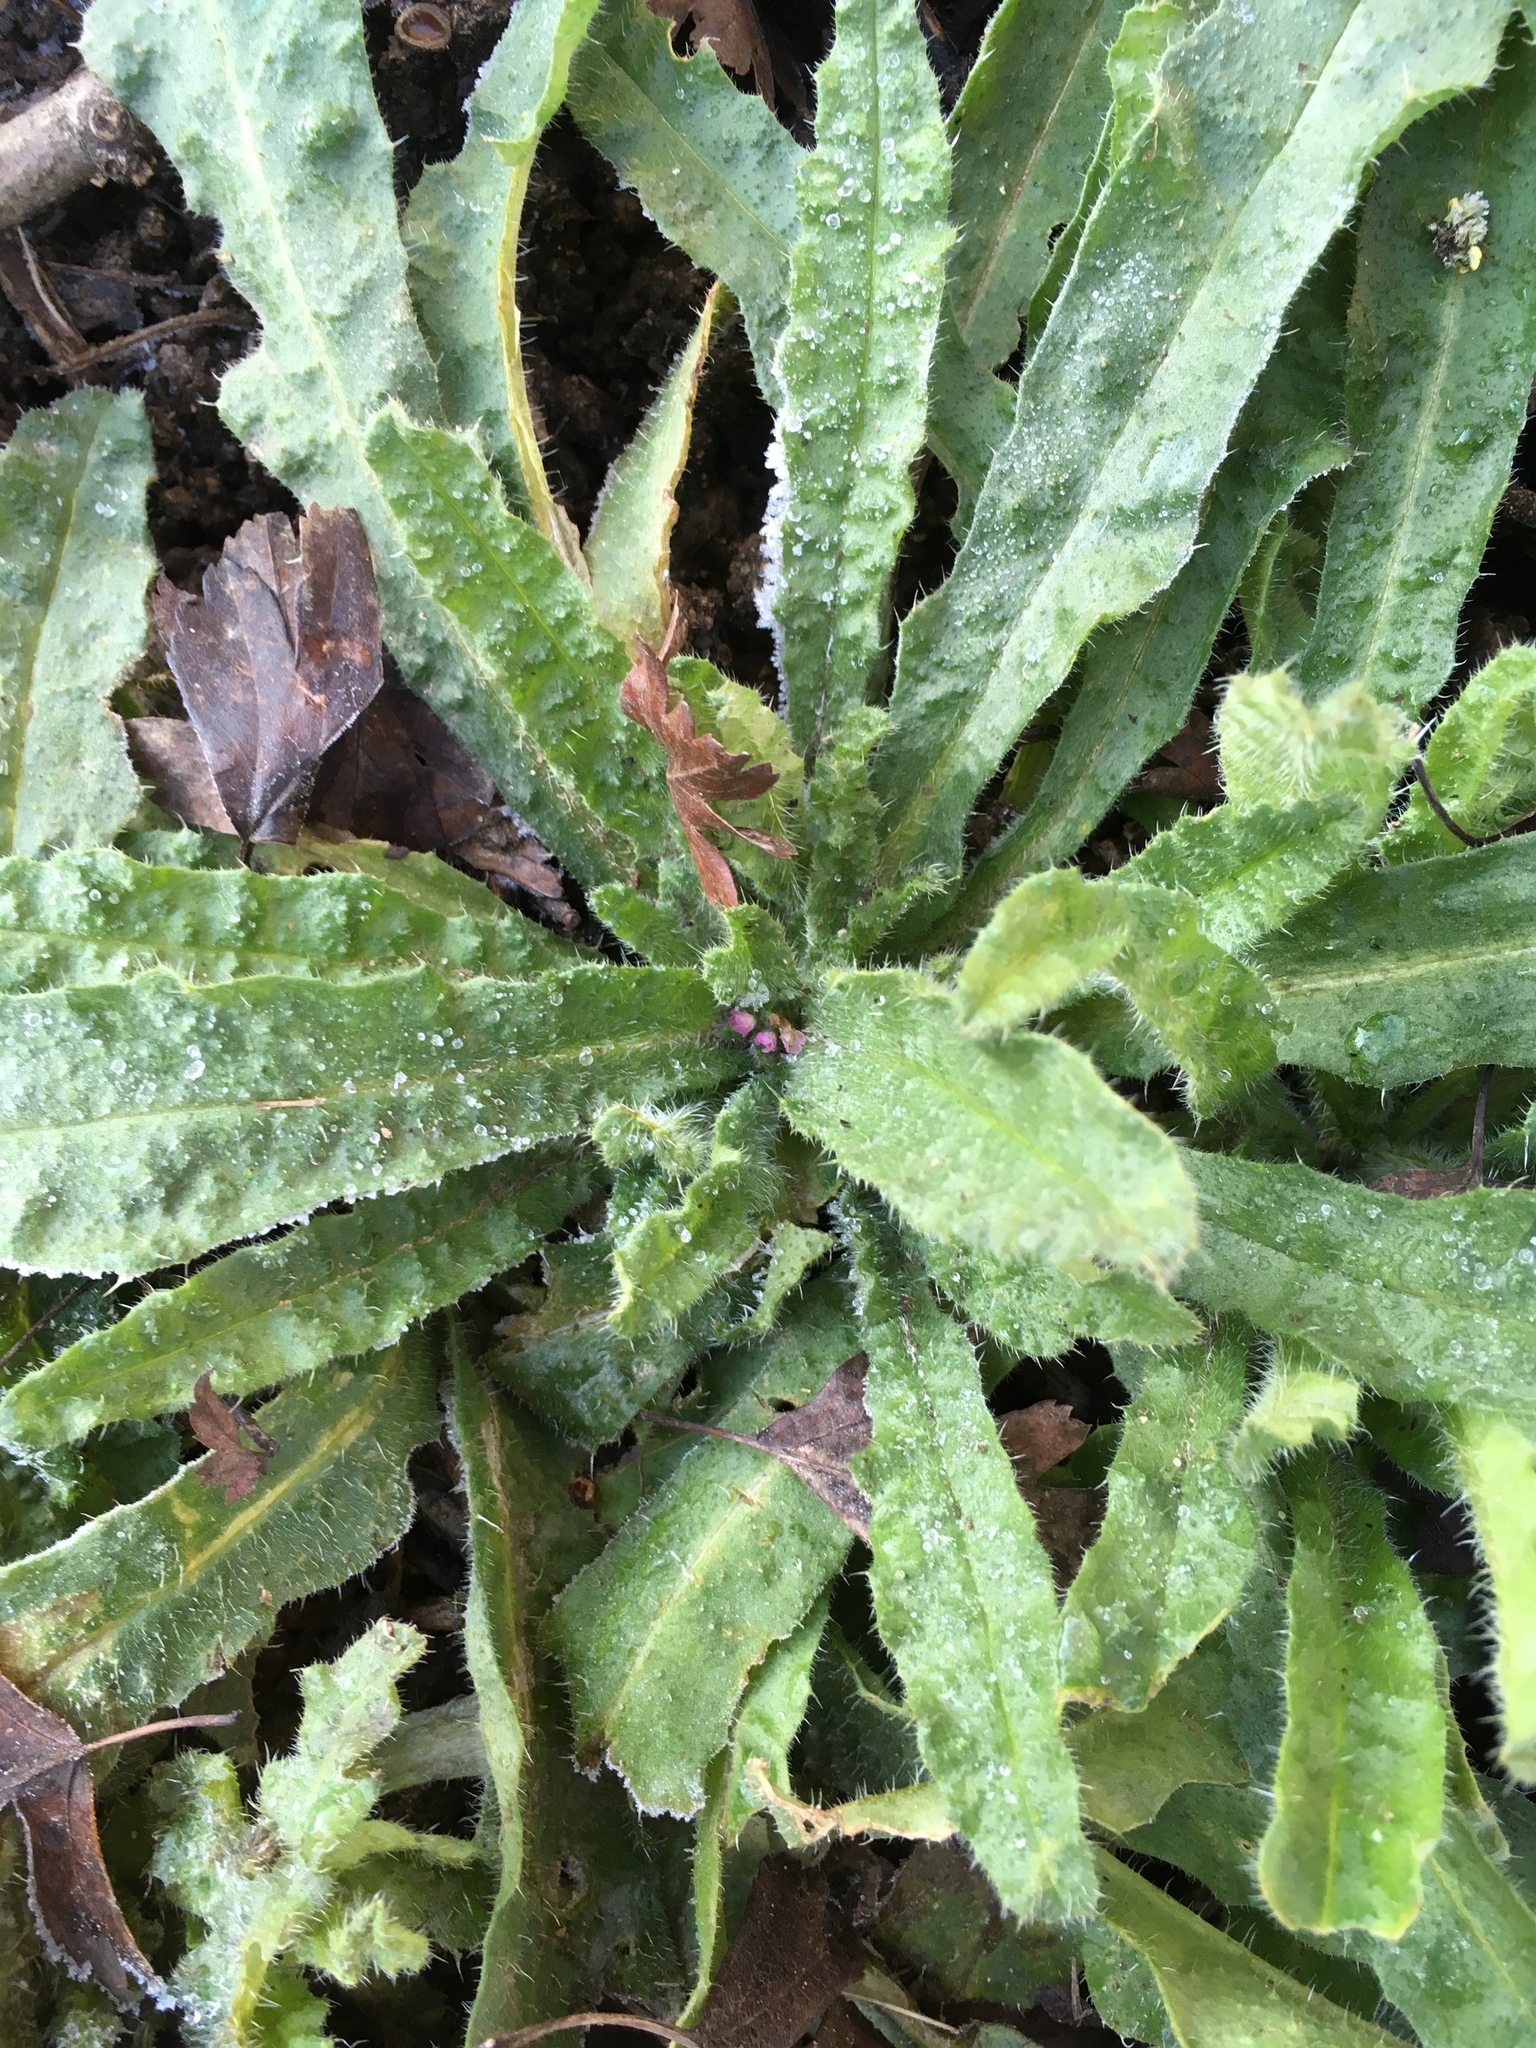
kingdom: Plantae
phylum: Tracheophyta
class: Magnoliopsida
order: Boraginales
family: Boraginaceae
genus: Echium
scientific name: Echium vulgare
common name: Common viper's bugloss
